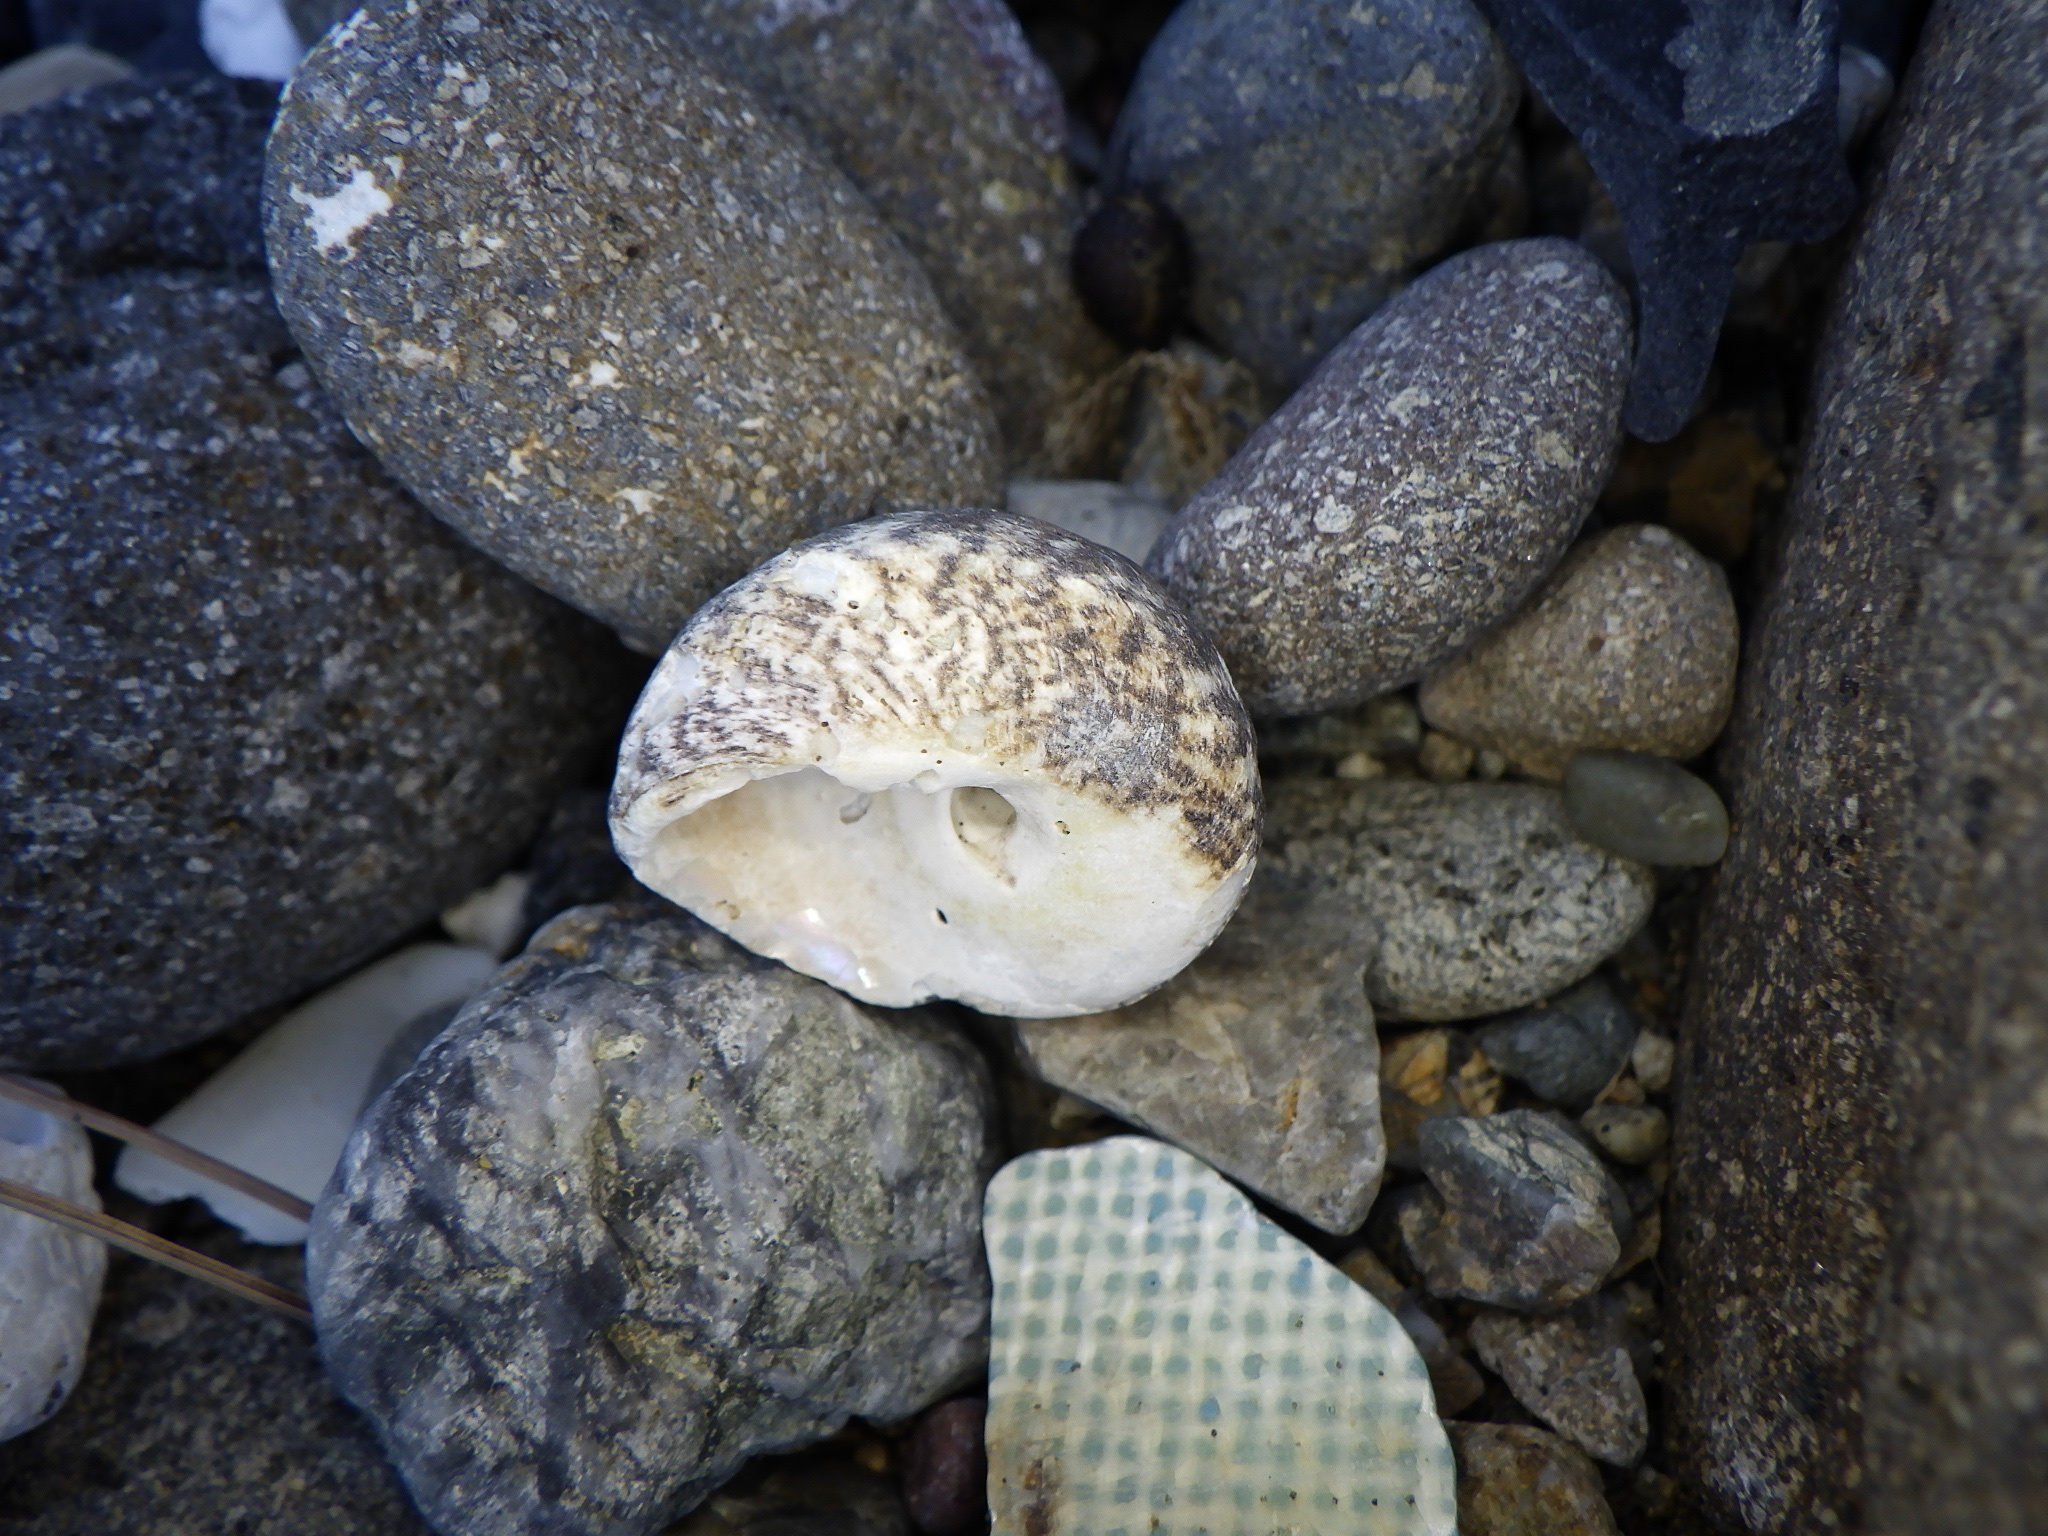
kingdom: Animalia
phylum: Mollusca
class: Gastropoda
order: Trochida
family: Tegulidae
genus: Tegula
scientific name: Tegula turbinata
